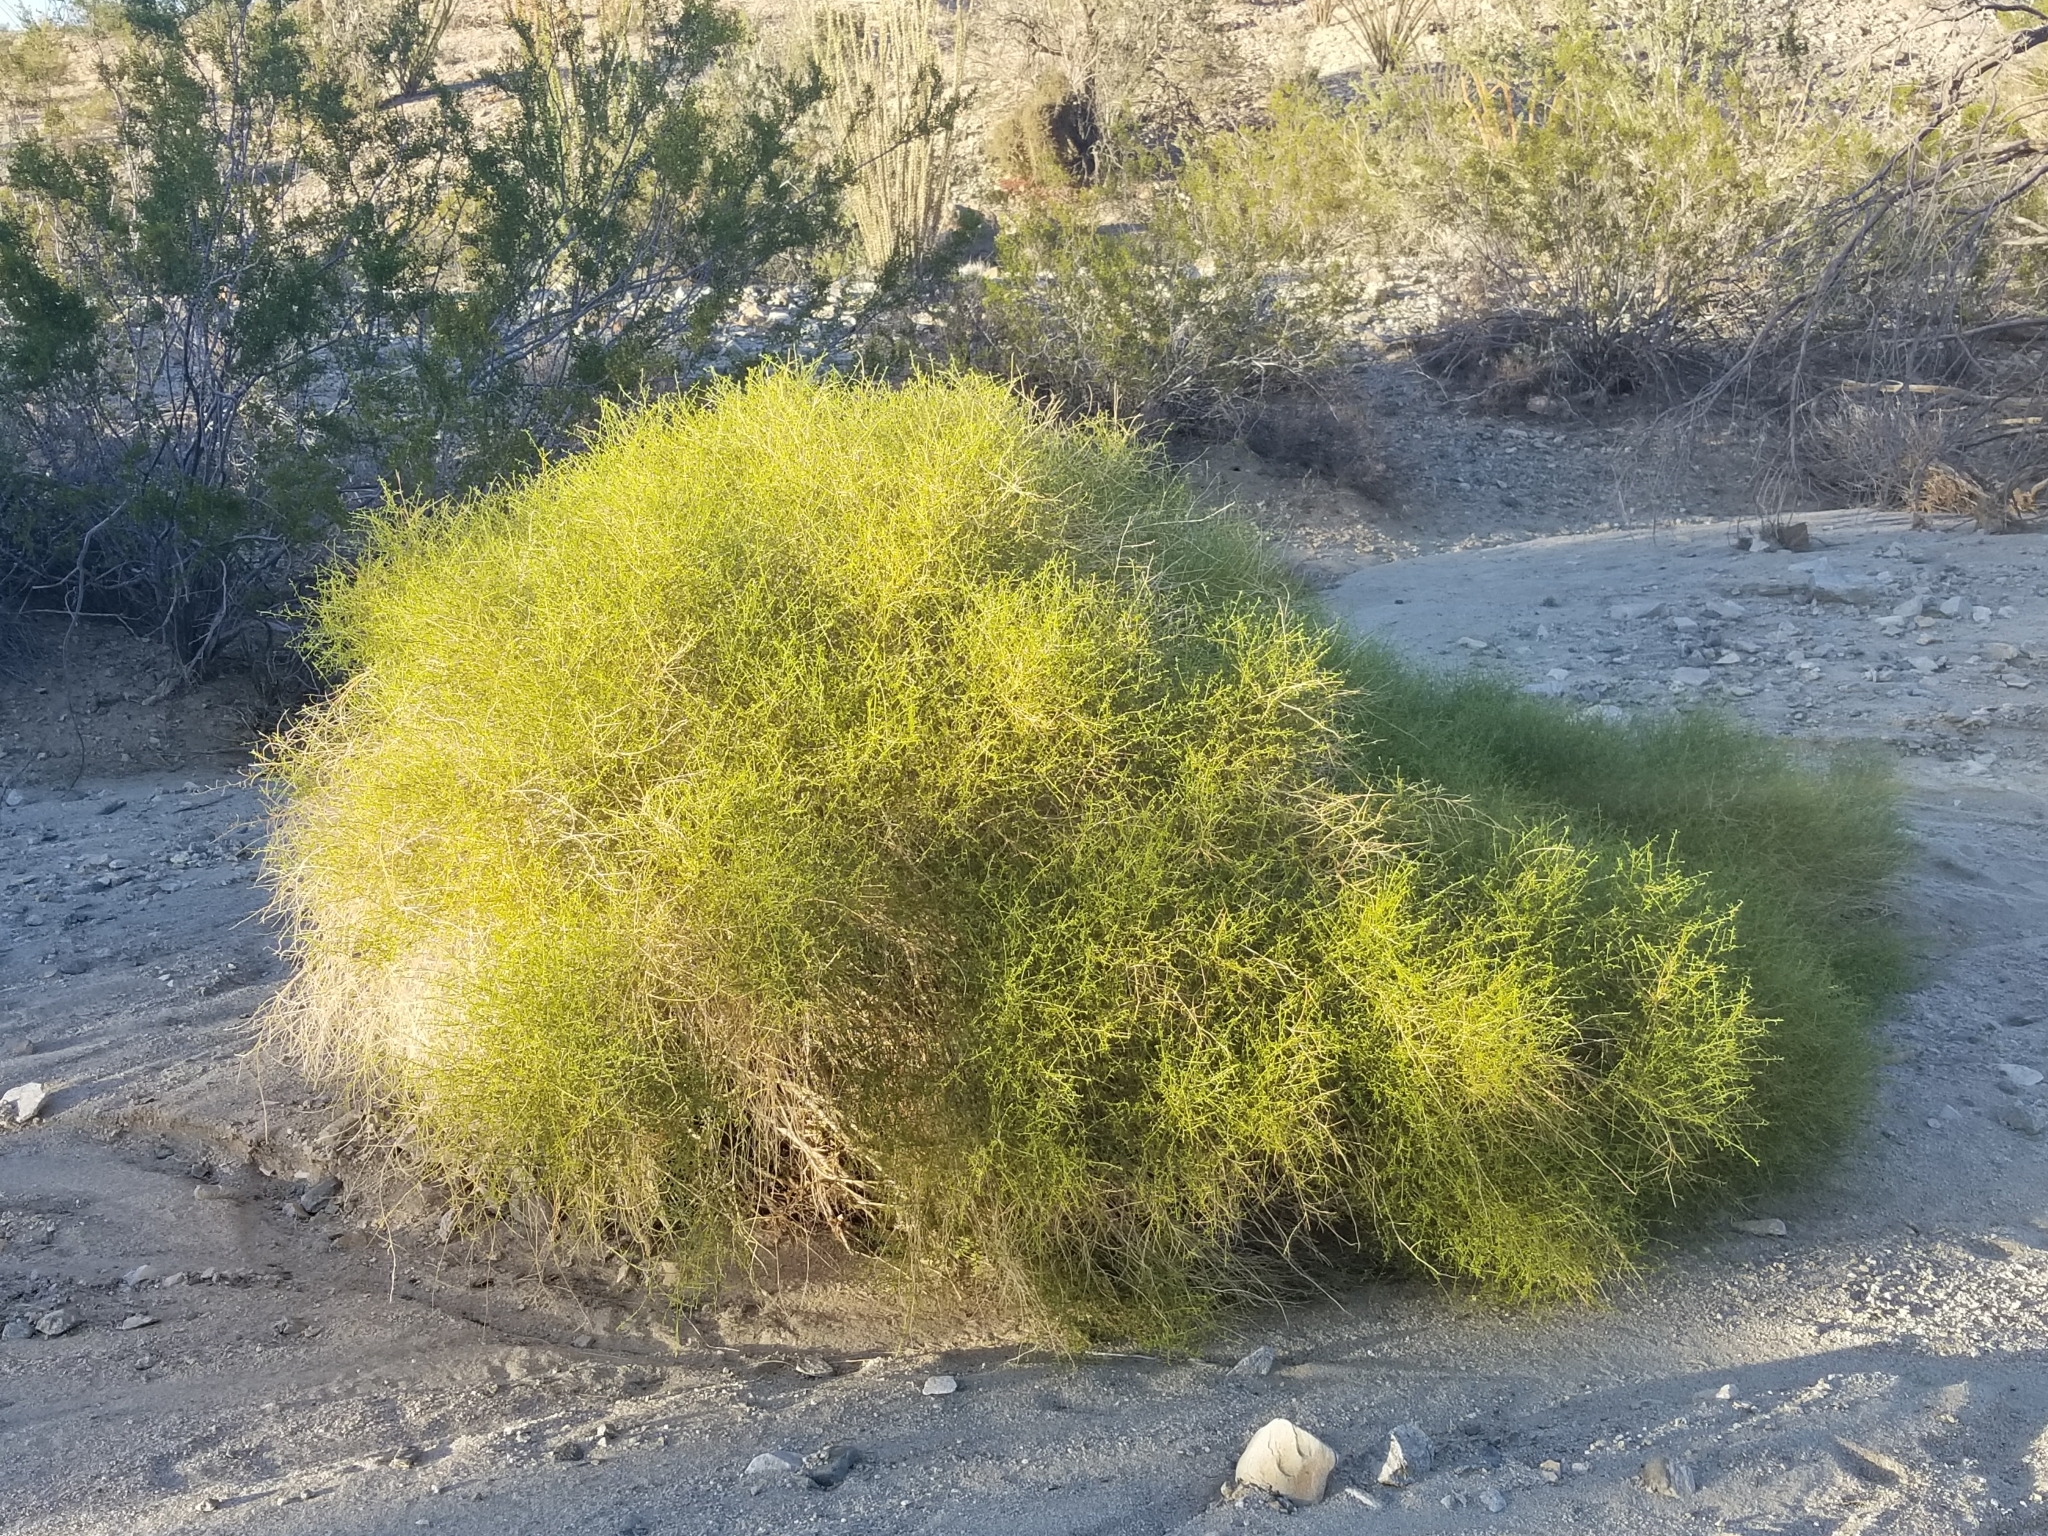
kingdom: Plantae
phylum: Tracheophyta
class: Magnoliopsida
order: Asterales
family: Asteraceae
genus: Ambrosia
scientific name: Ambrosia salsola
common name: Burrobrush
